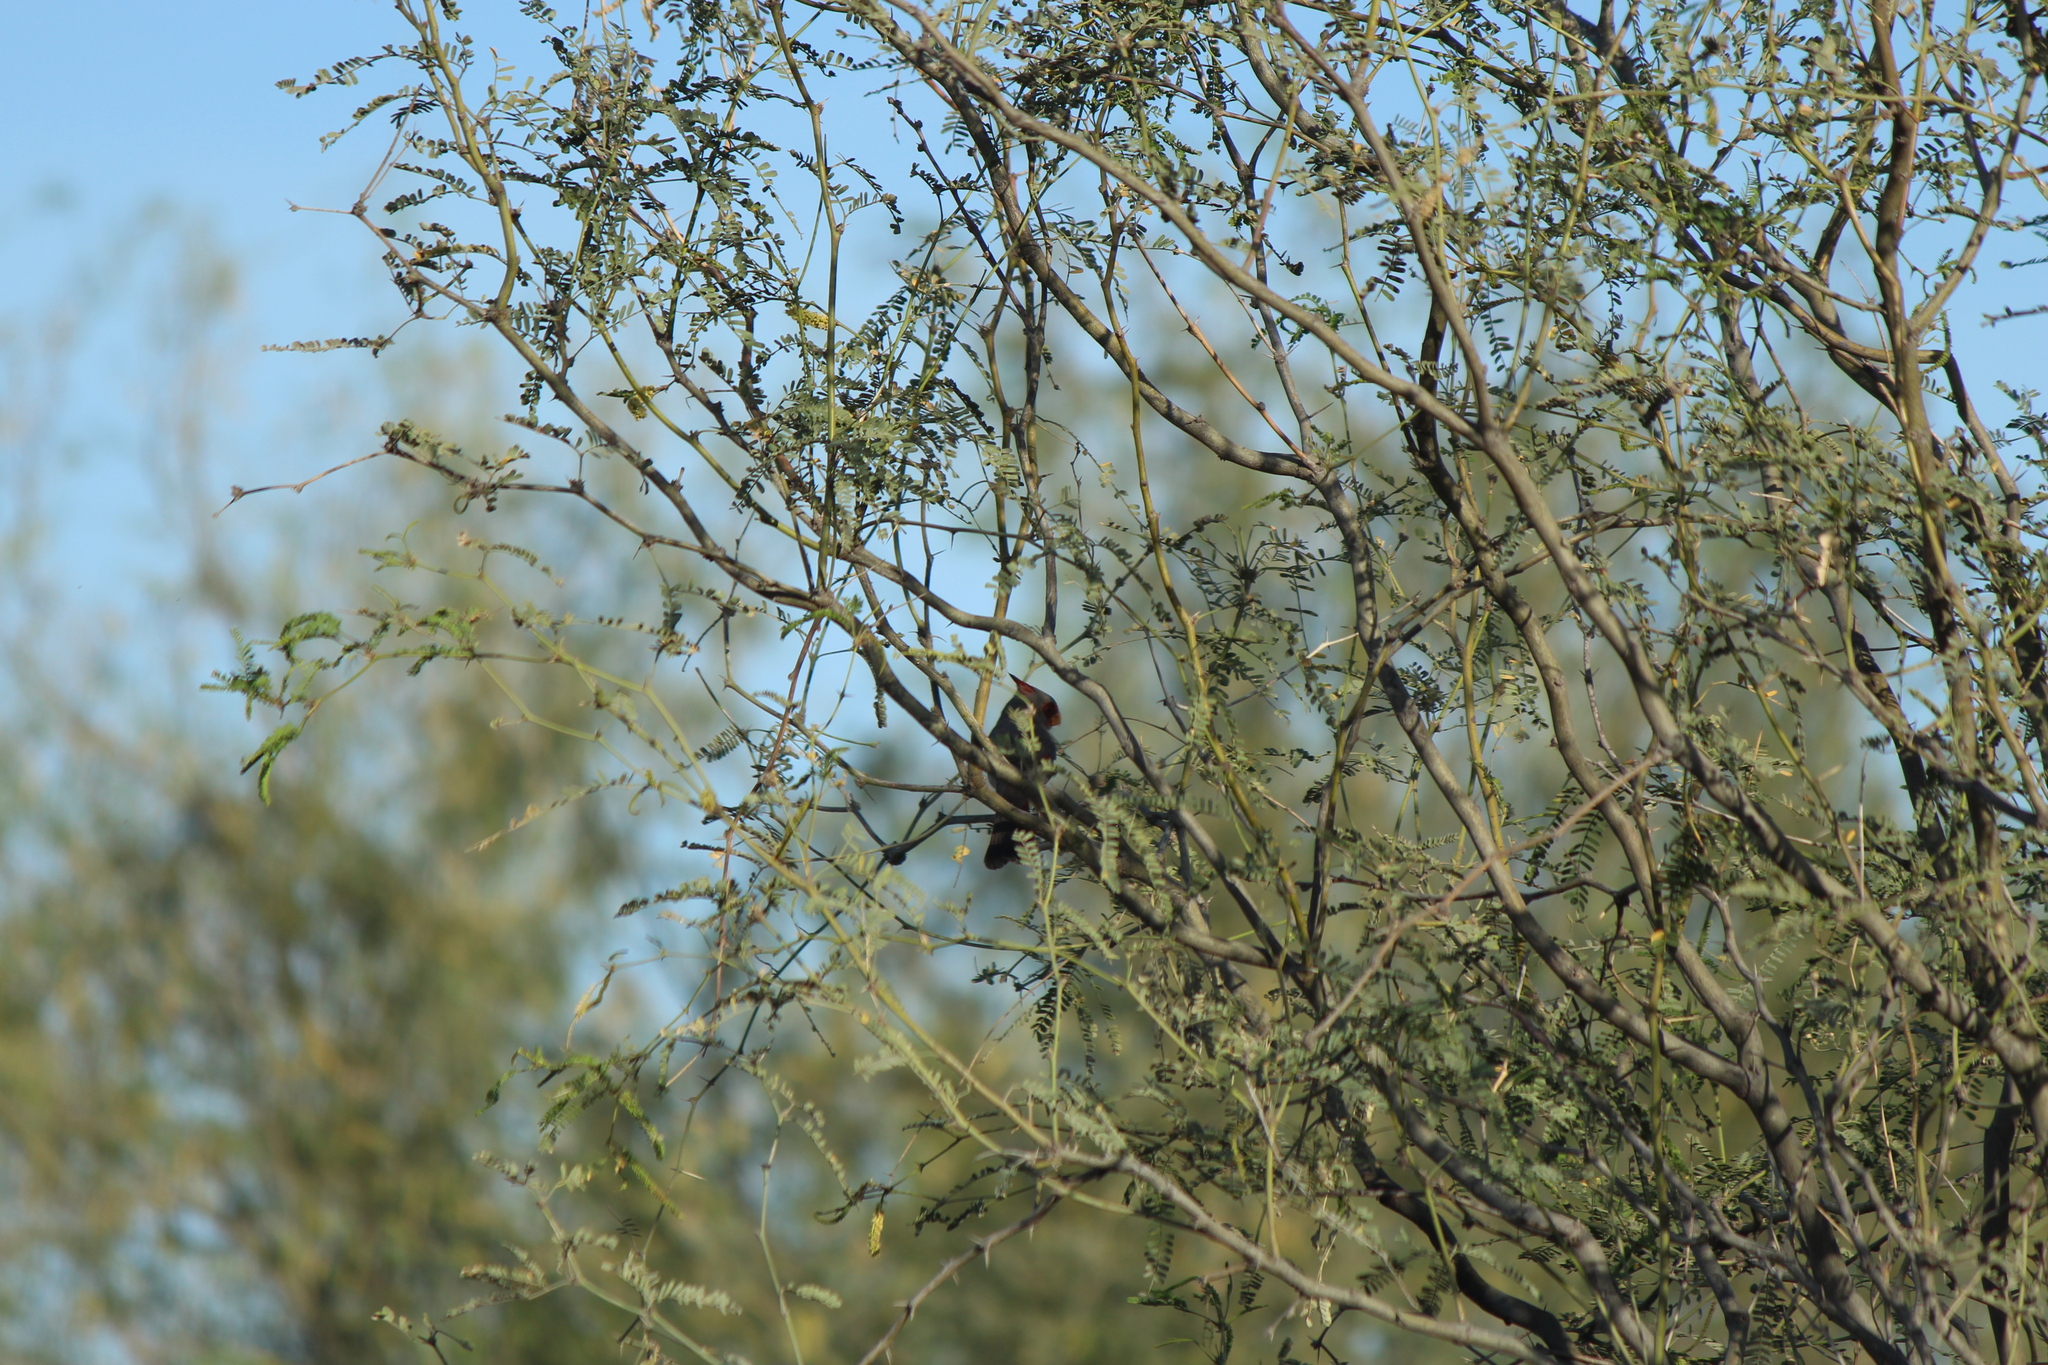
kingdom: Animalia
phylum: Chordata
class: Aves
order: Passeriformes
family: Cardinalidae
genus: Cardinalis
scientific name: Cardinalis sinuatus
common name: Pyrrhuloxia
